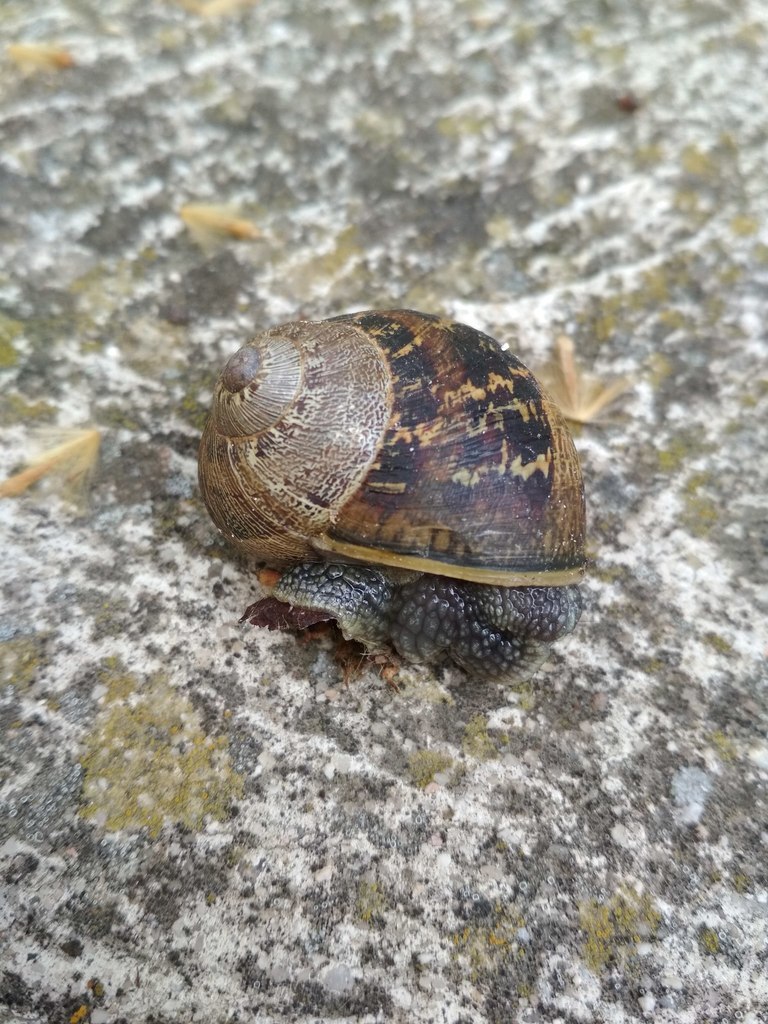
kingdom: Animalia
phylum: Mollusca
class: Gastropoda
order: Stylommatophora
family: Helicidae
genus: Cornu
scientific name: Cornu aspersum
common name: Brown garden snail
